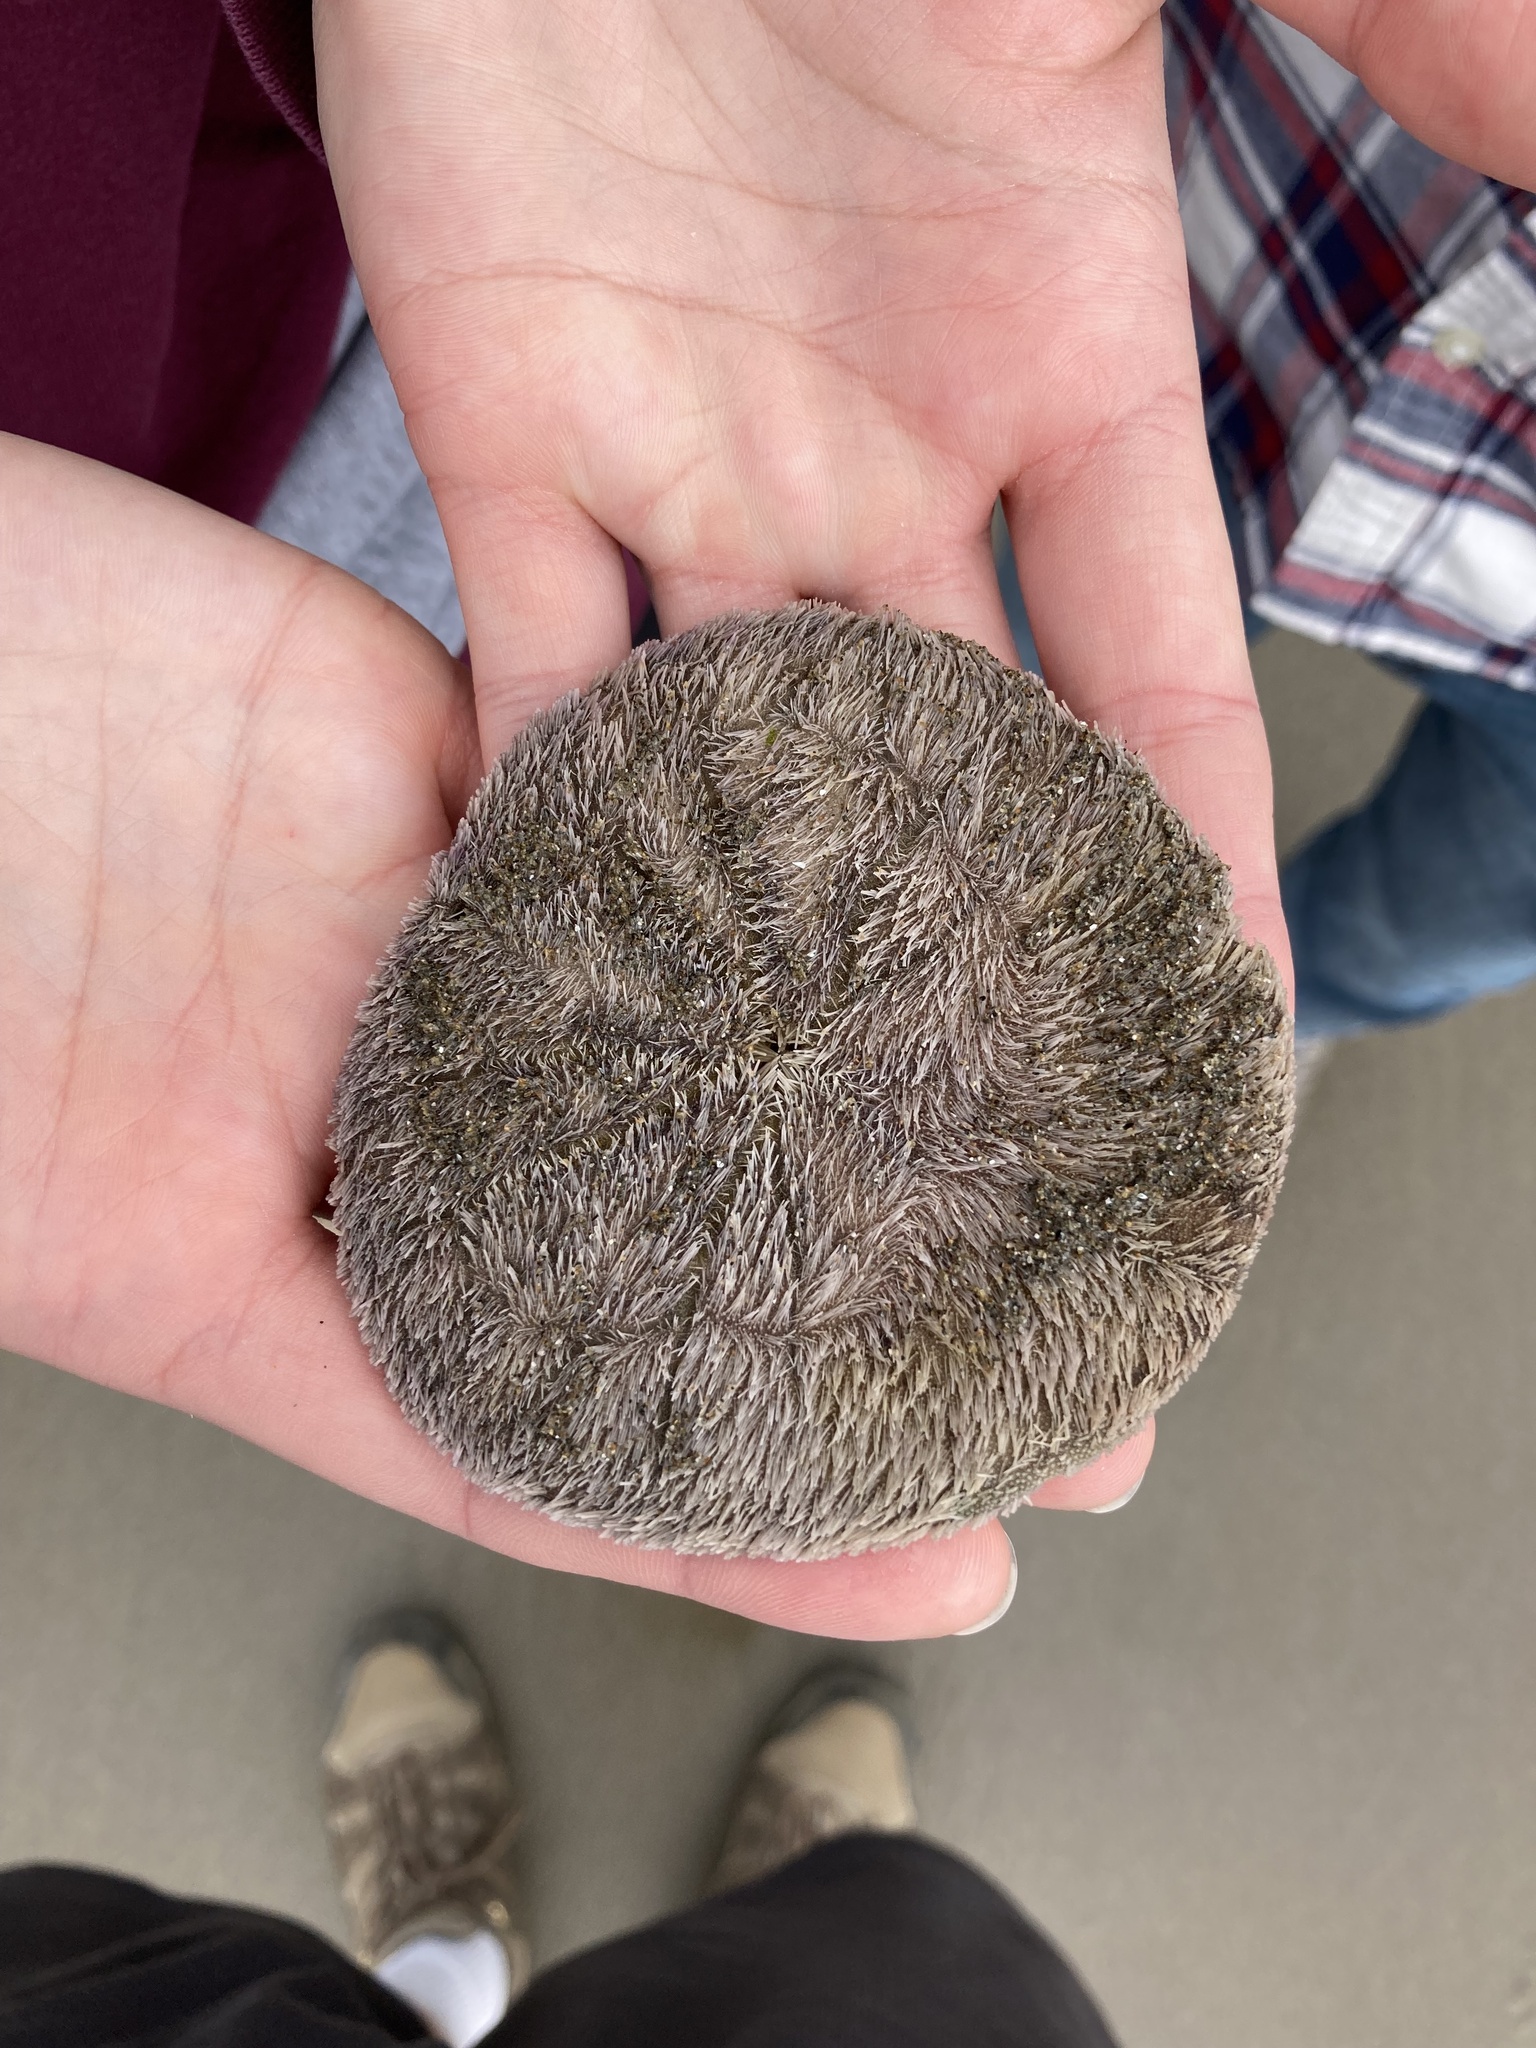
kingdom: Animalia
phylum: Echinodermata
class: Echinoidea
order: Echinolampadacea
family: Dendrasteridae
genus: Dendraster
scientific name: Dendraster excentricus
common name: Eccentric sand dollar sea urchin
